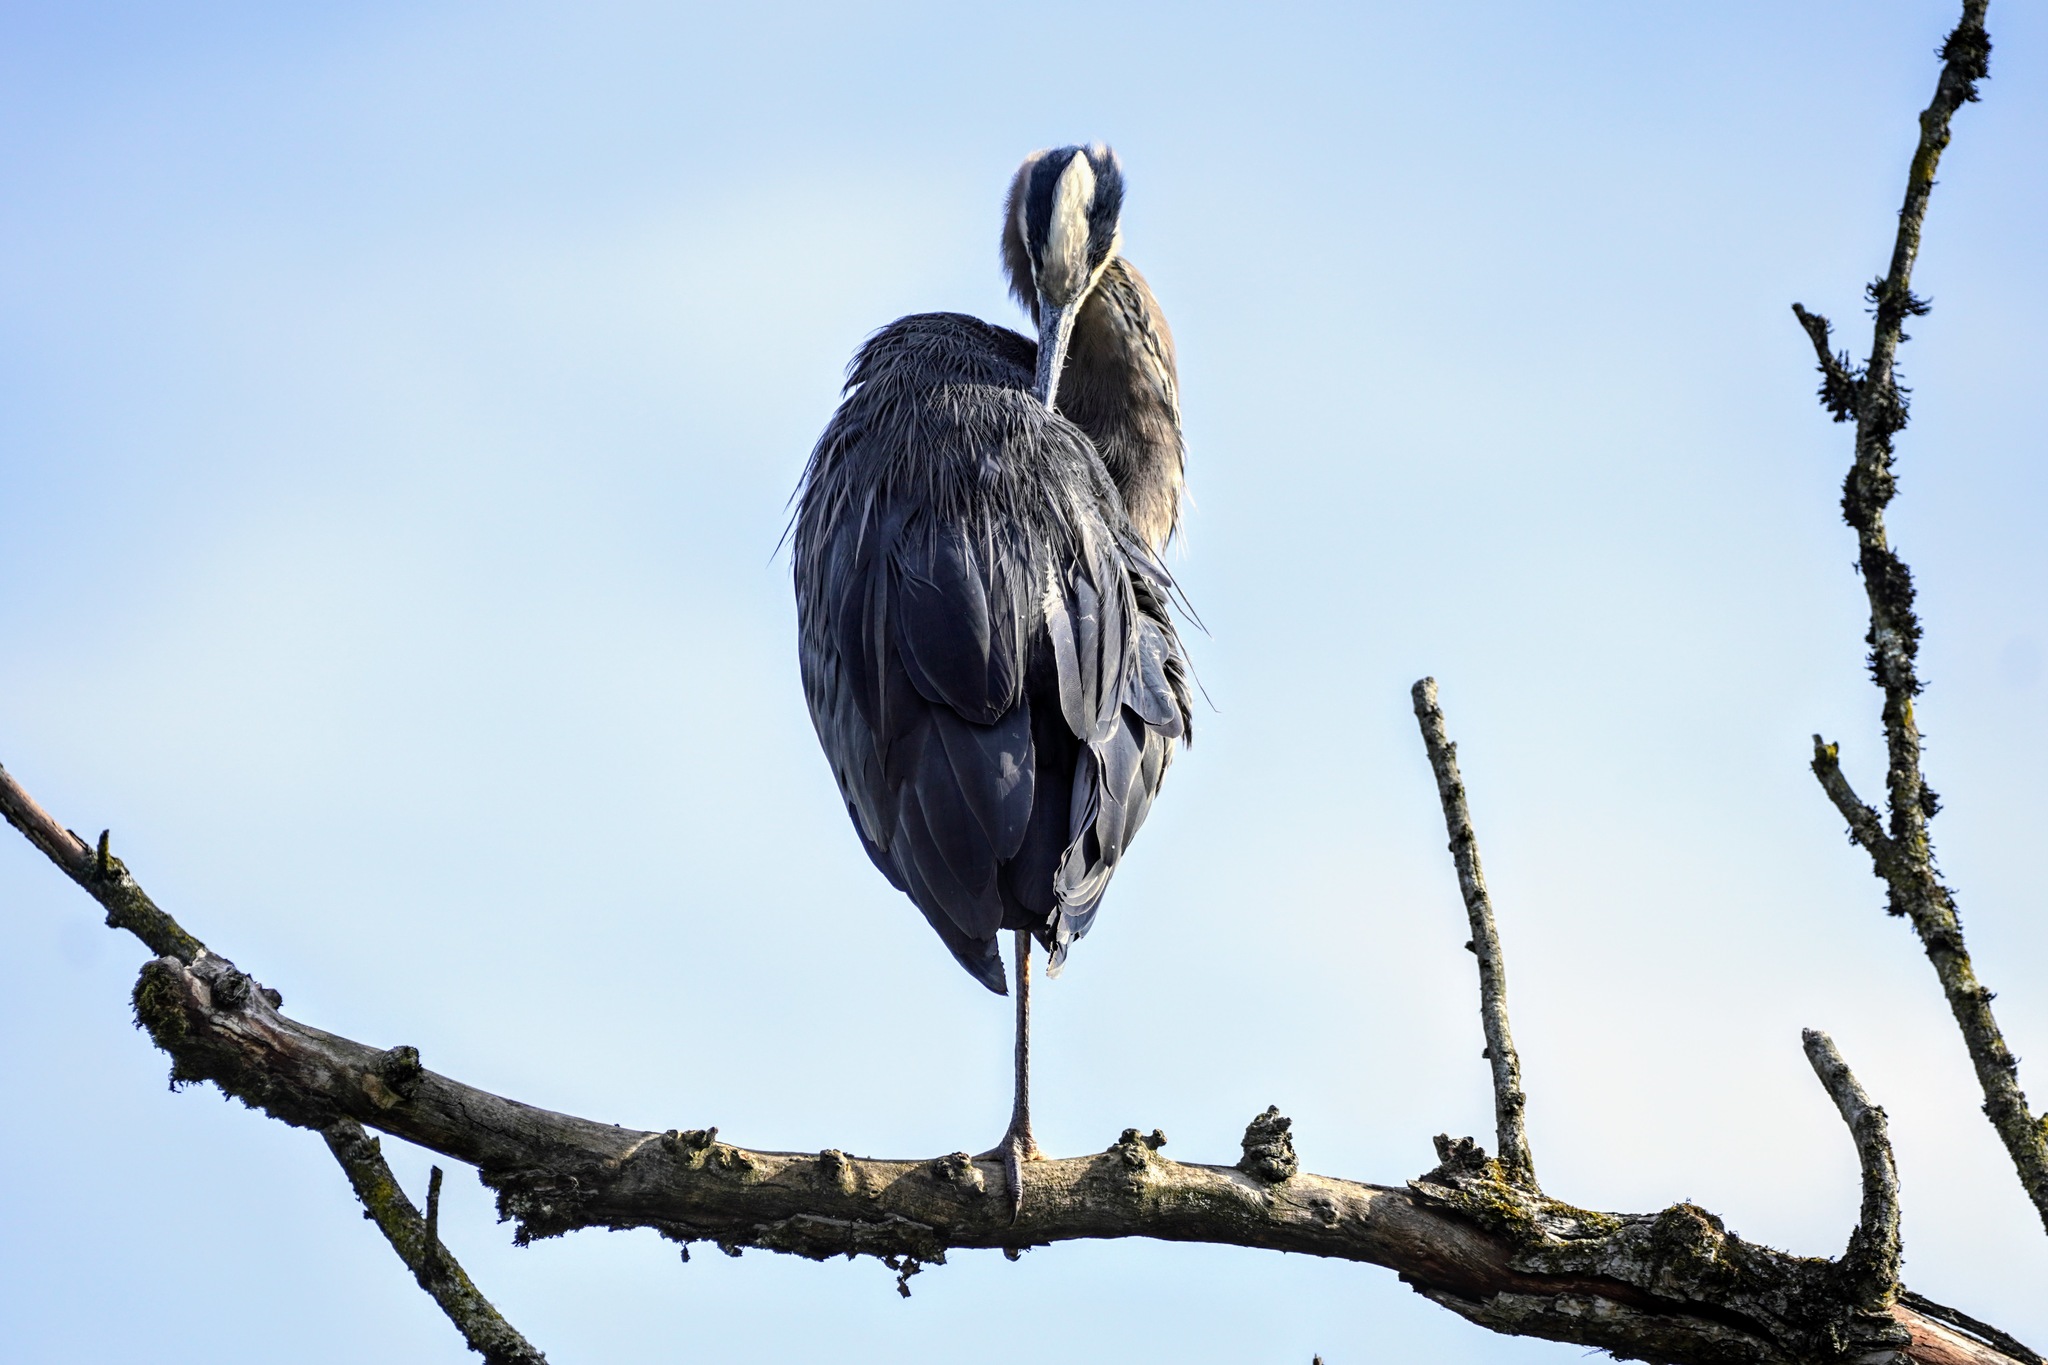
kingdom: Animalia
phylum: Chordata
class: Aves
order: Pelecaniformes
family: Ardeidae
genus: Ardea
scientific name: Ardea herodias
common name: Great blue heron
